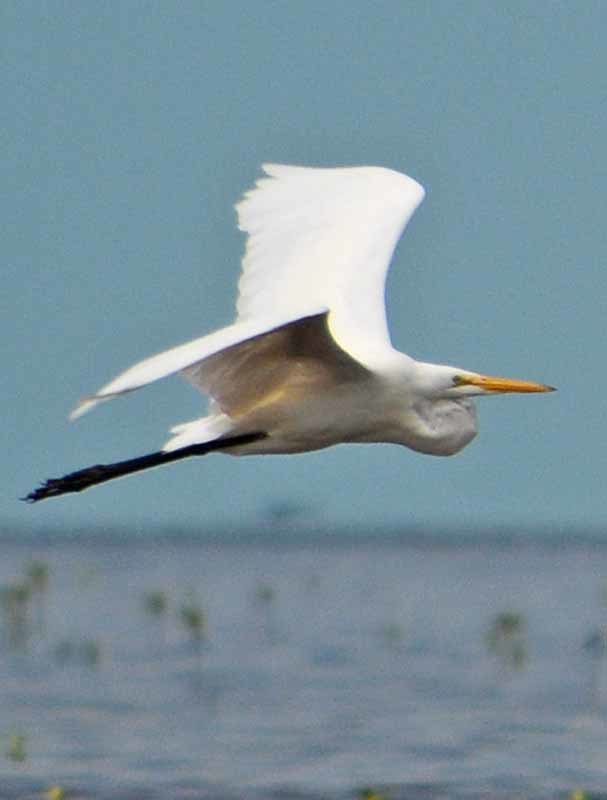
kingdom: Animalia
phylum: Chordata
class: Aves
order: Pelecaniformes
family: Ardeidae
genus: Ardea
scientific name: Ardea alba
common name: Great egret
